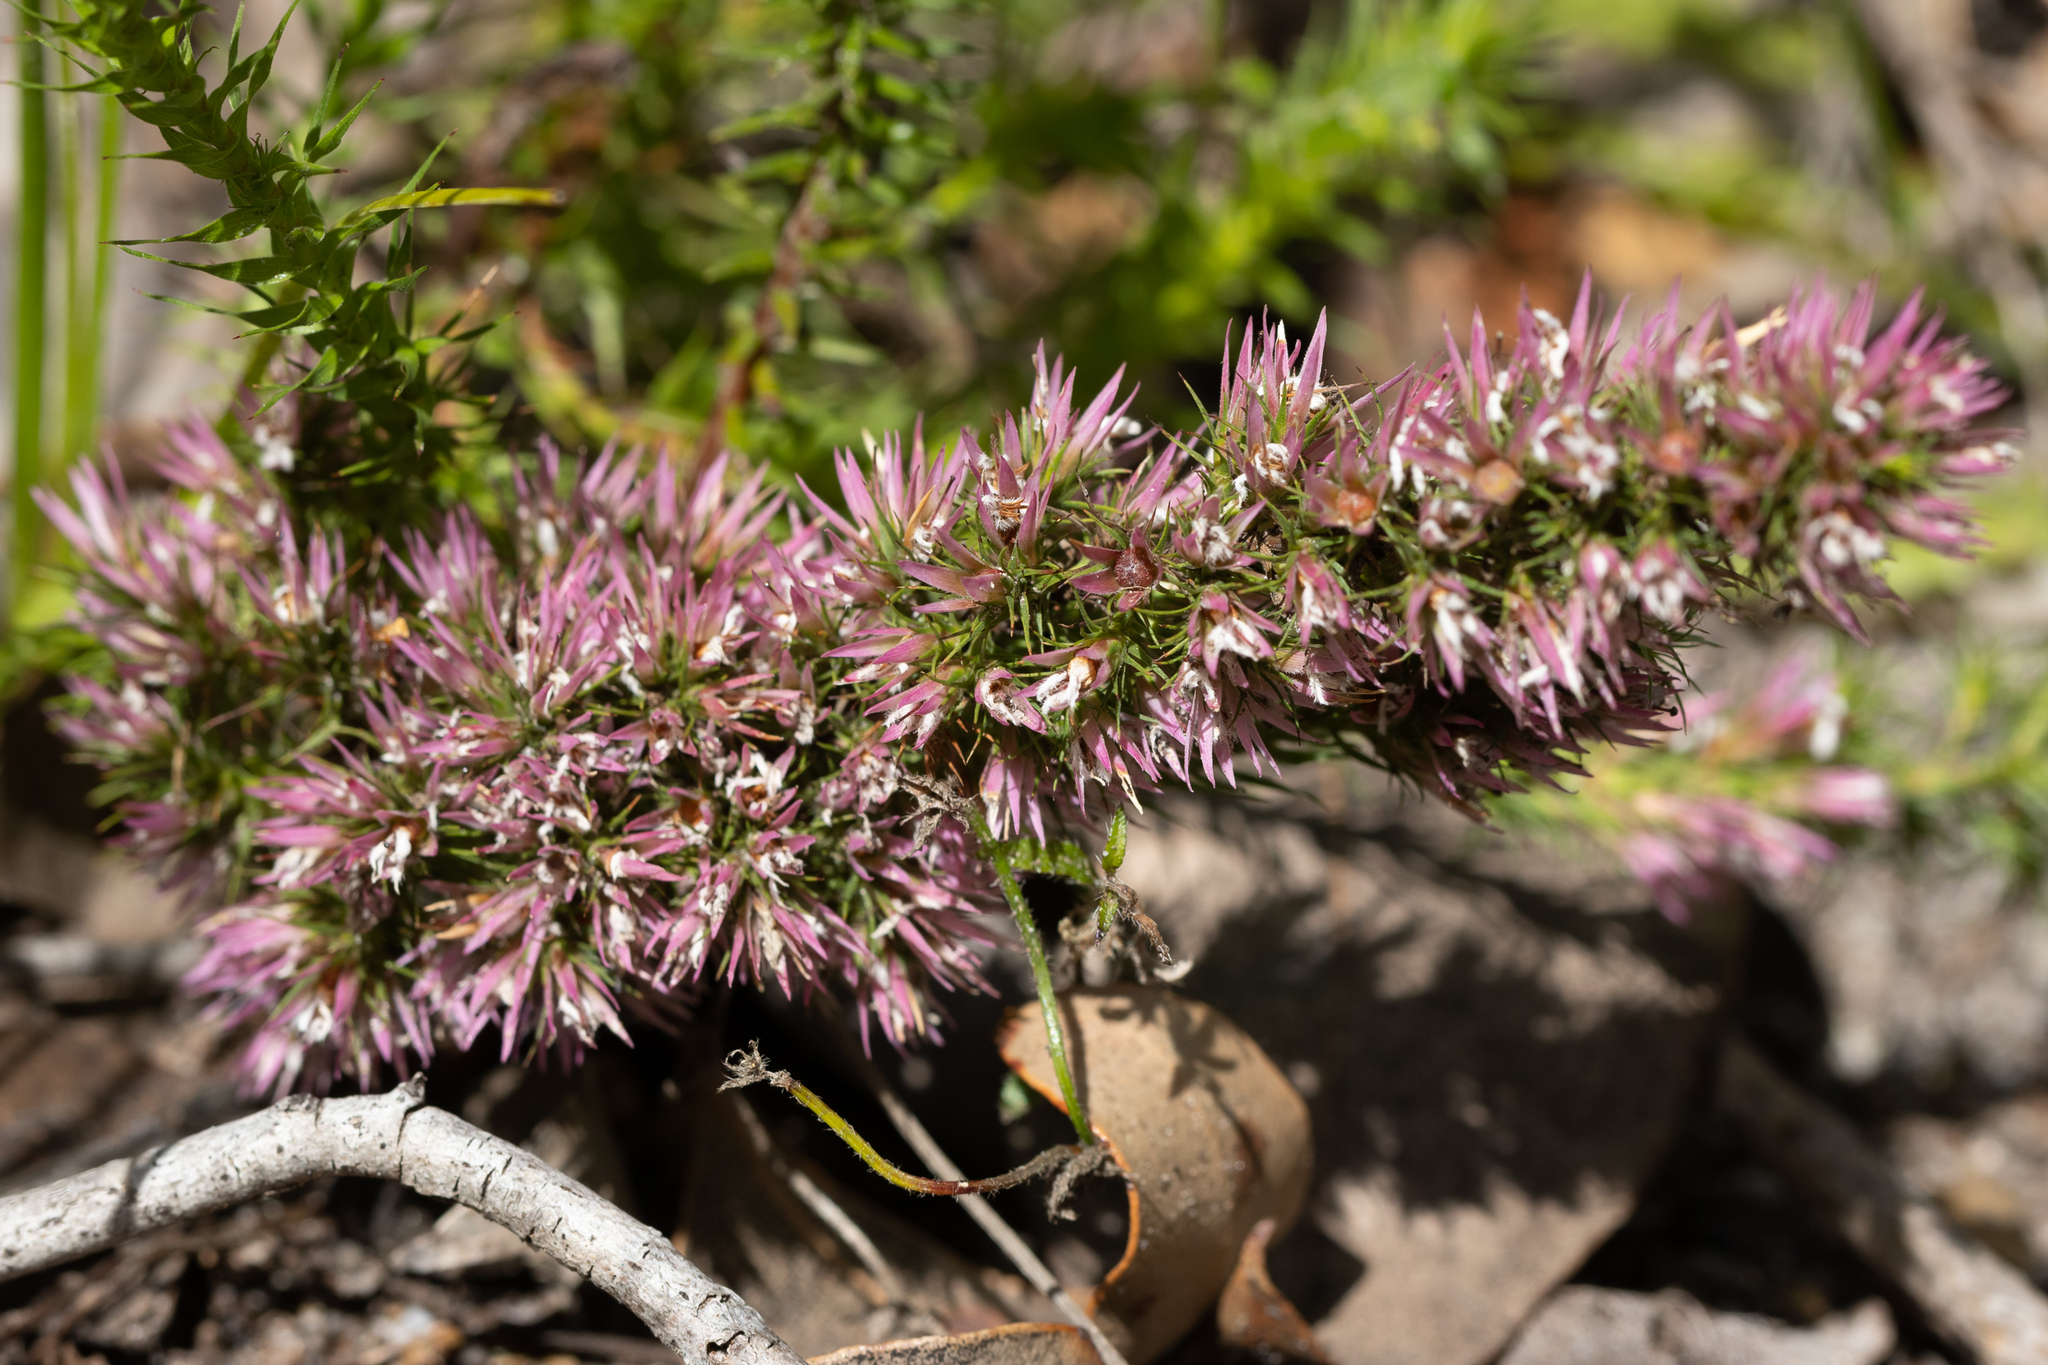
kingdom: Plantae
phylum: Tracheophyta
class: Magnoliopsida
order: Ericales
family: Ericaceae
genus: Andersonia
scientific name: Andersonia caerulea
